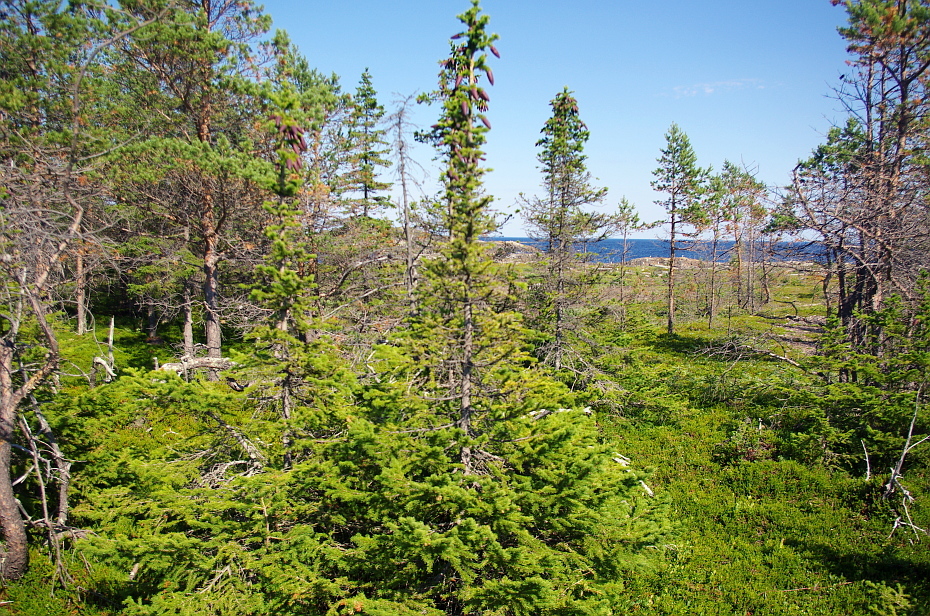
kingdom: Plantae
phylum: Tracheophyta
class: Pinopsida
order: Pinales
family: Pinaceae
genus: Picea
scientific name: Picea obovata
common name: Siberian spruce
